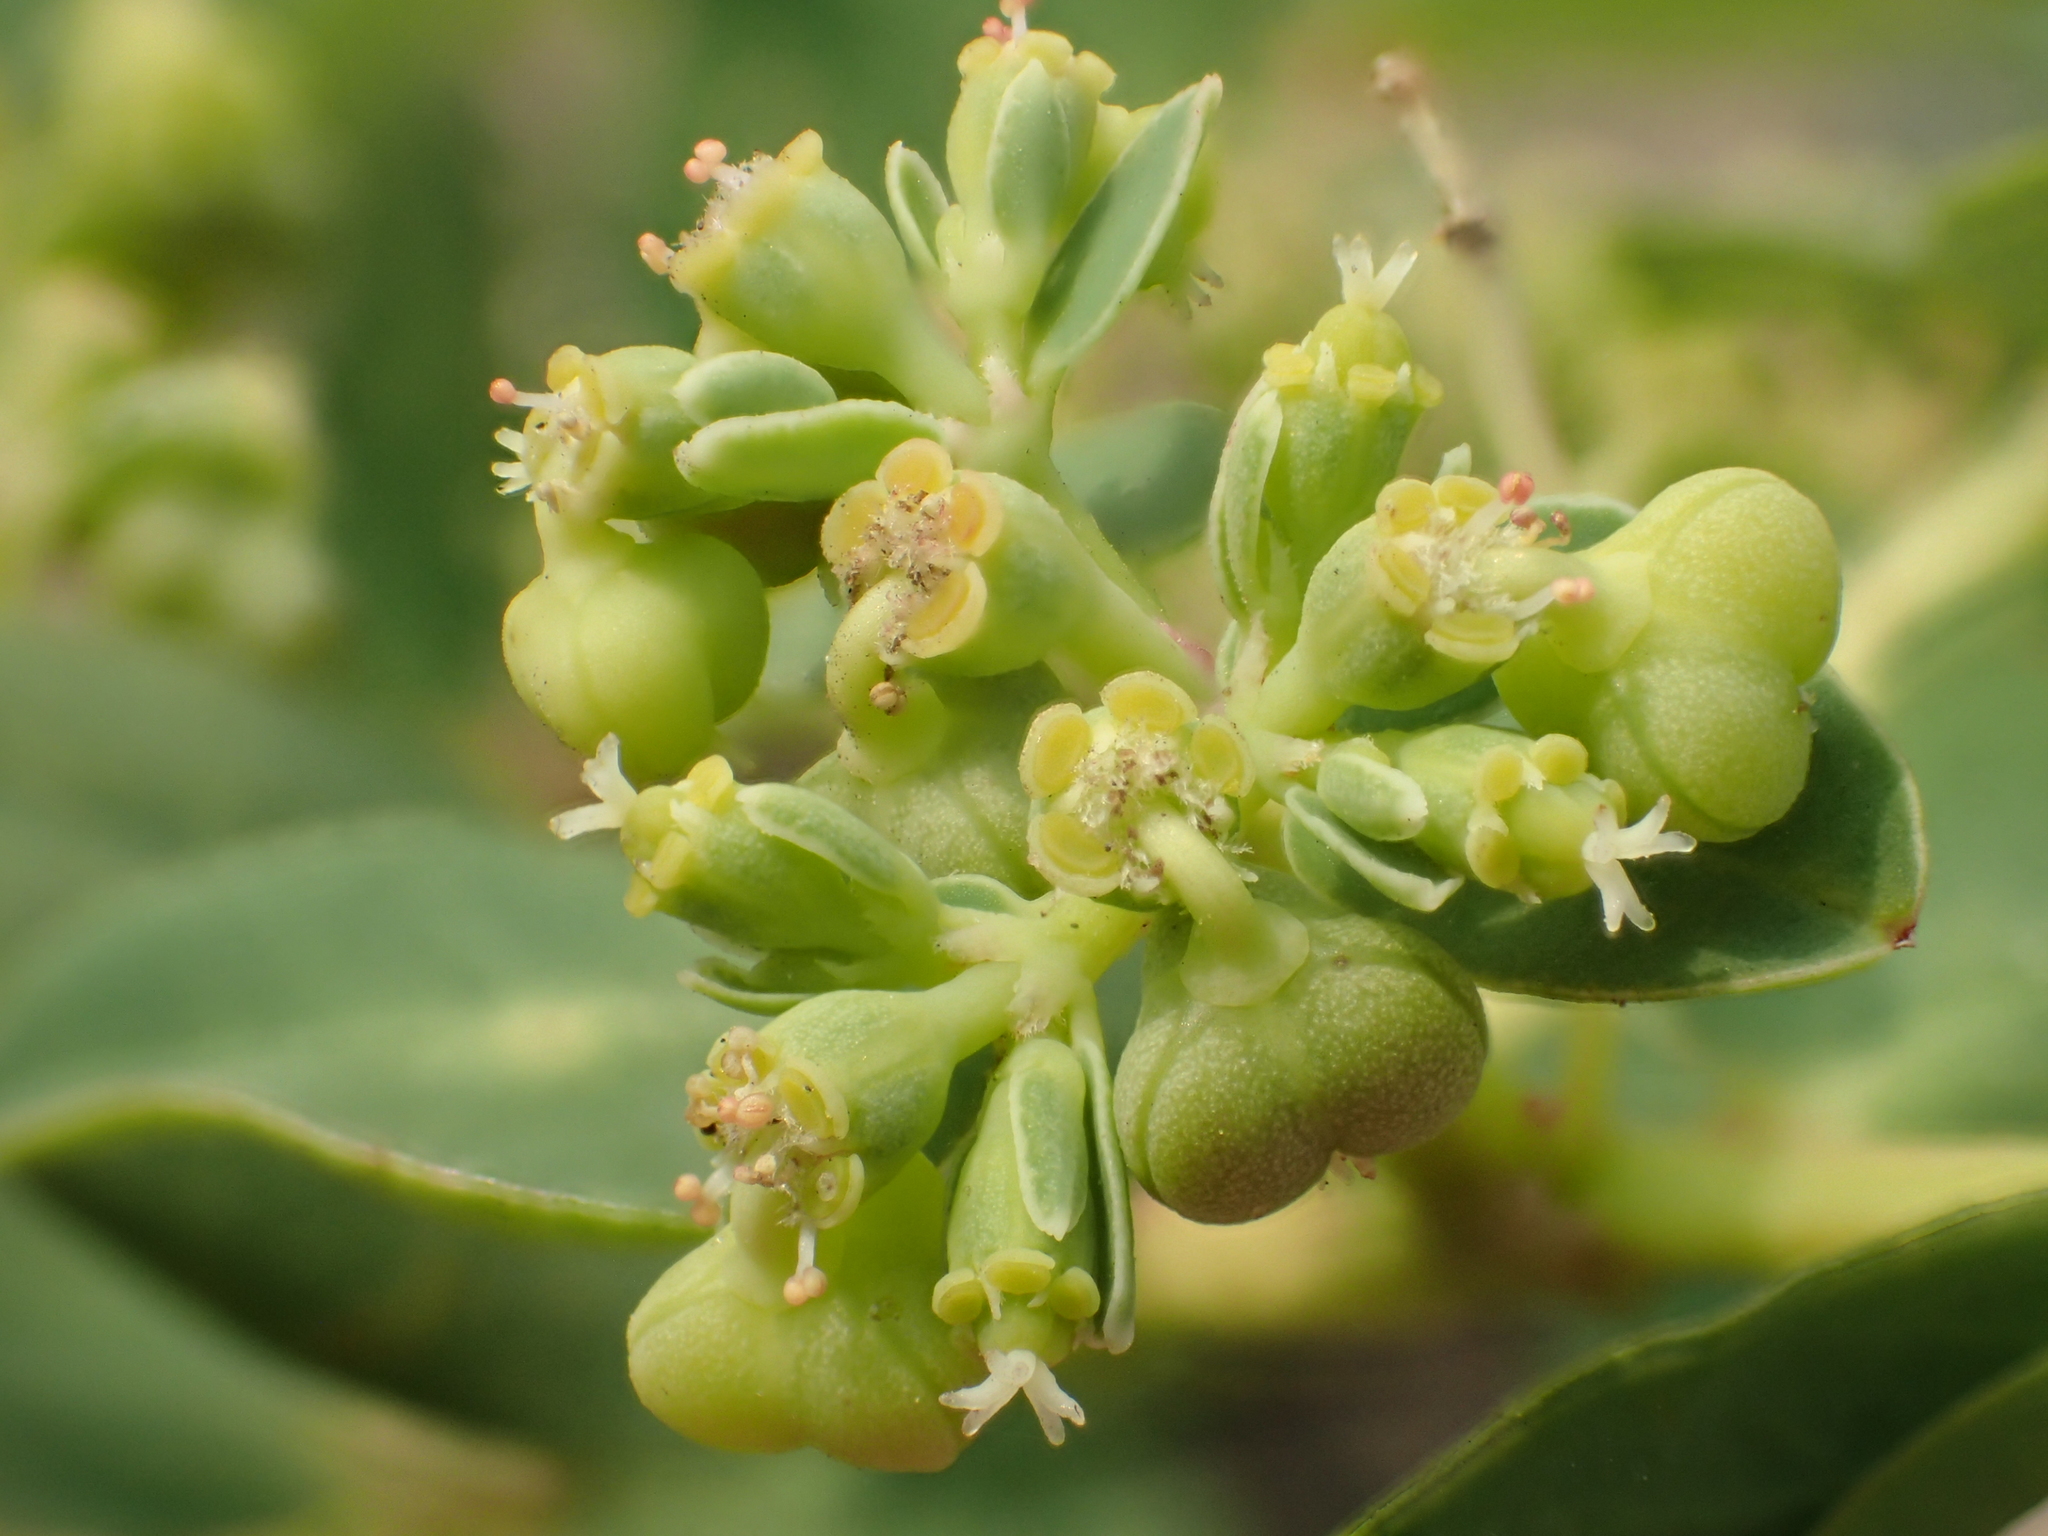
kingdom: Plantae
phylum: Tracheophyta
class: Magnoliopsida
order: Malpighiales
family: Euphorbiaceae
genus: Euphorbia
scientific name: Euphorbia atoto
